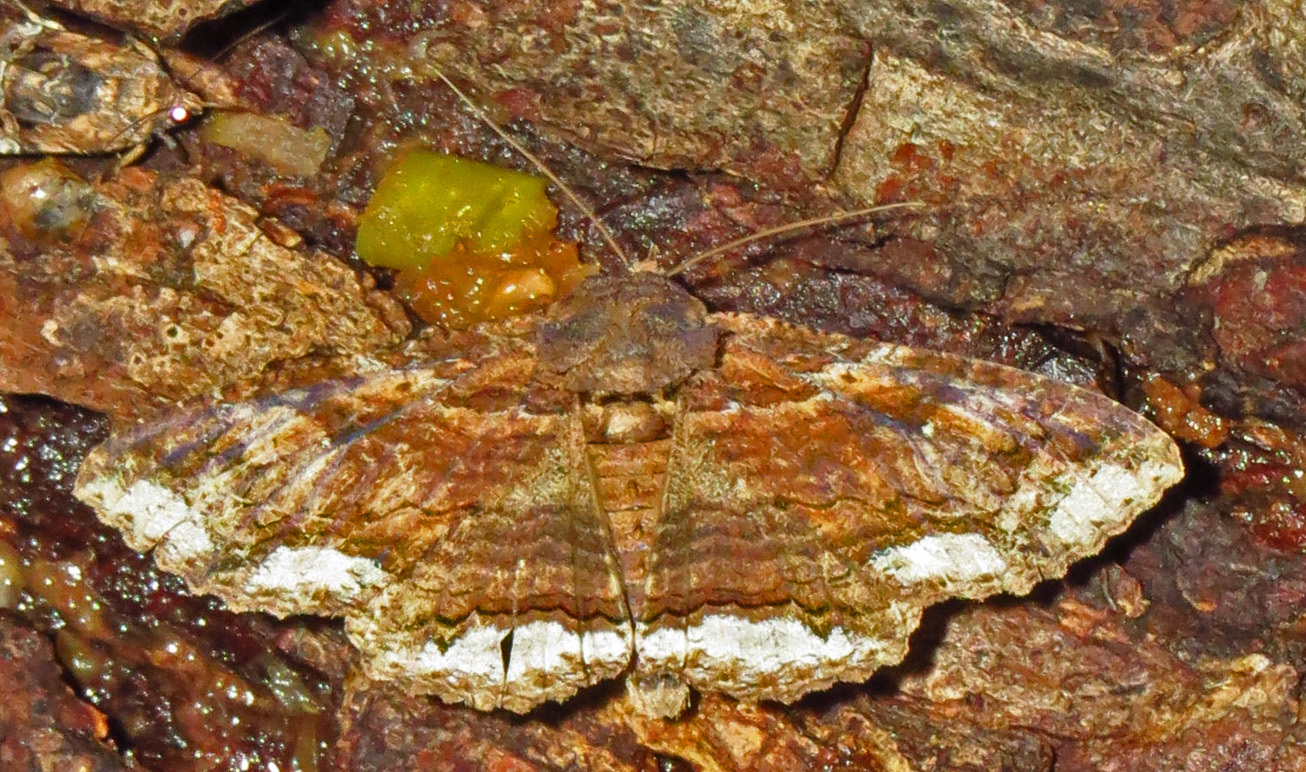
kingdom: Animalia
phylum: Arthropoda
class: Insecta
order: Lepidoptera
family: Erebidae
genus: Zale
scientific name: Zale lunata
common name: Lunate zale moth
